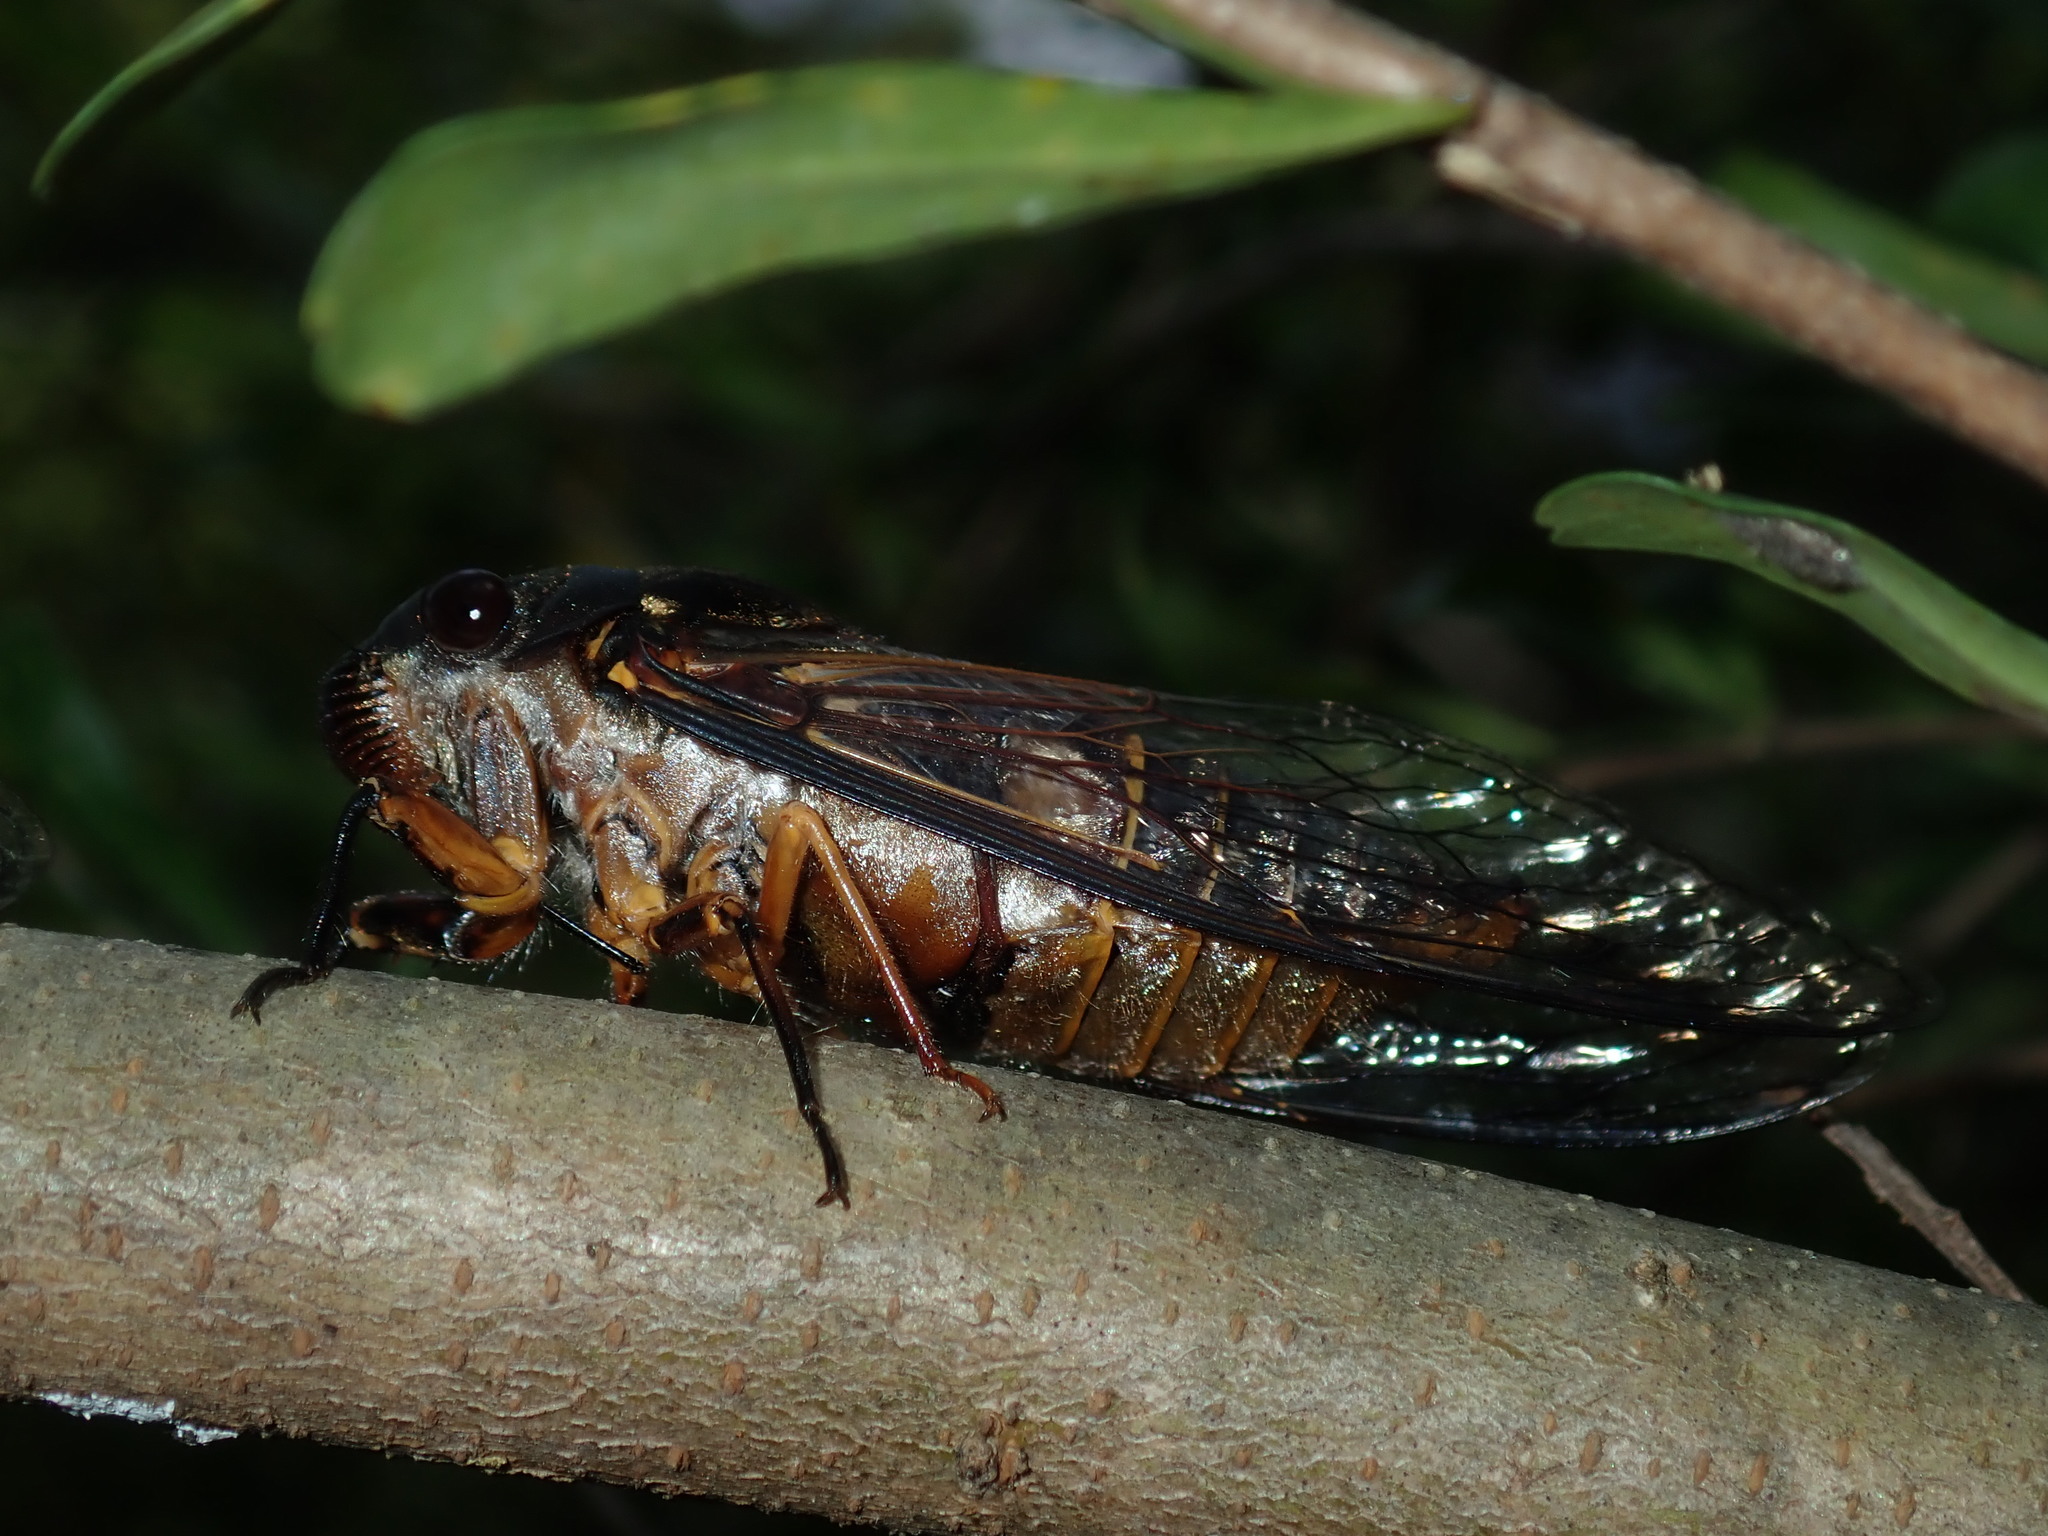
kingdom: Animalia
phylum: Arthropoda
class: Insecta
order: Hemiptera
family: Cicadidae
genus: Psaltoda
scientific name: Psaltoda plaga
